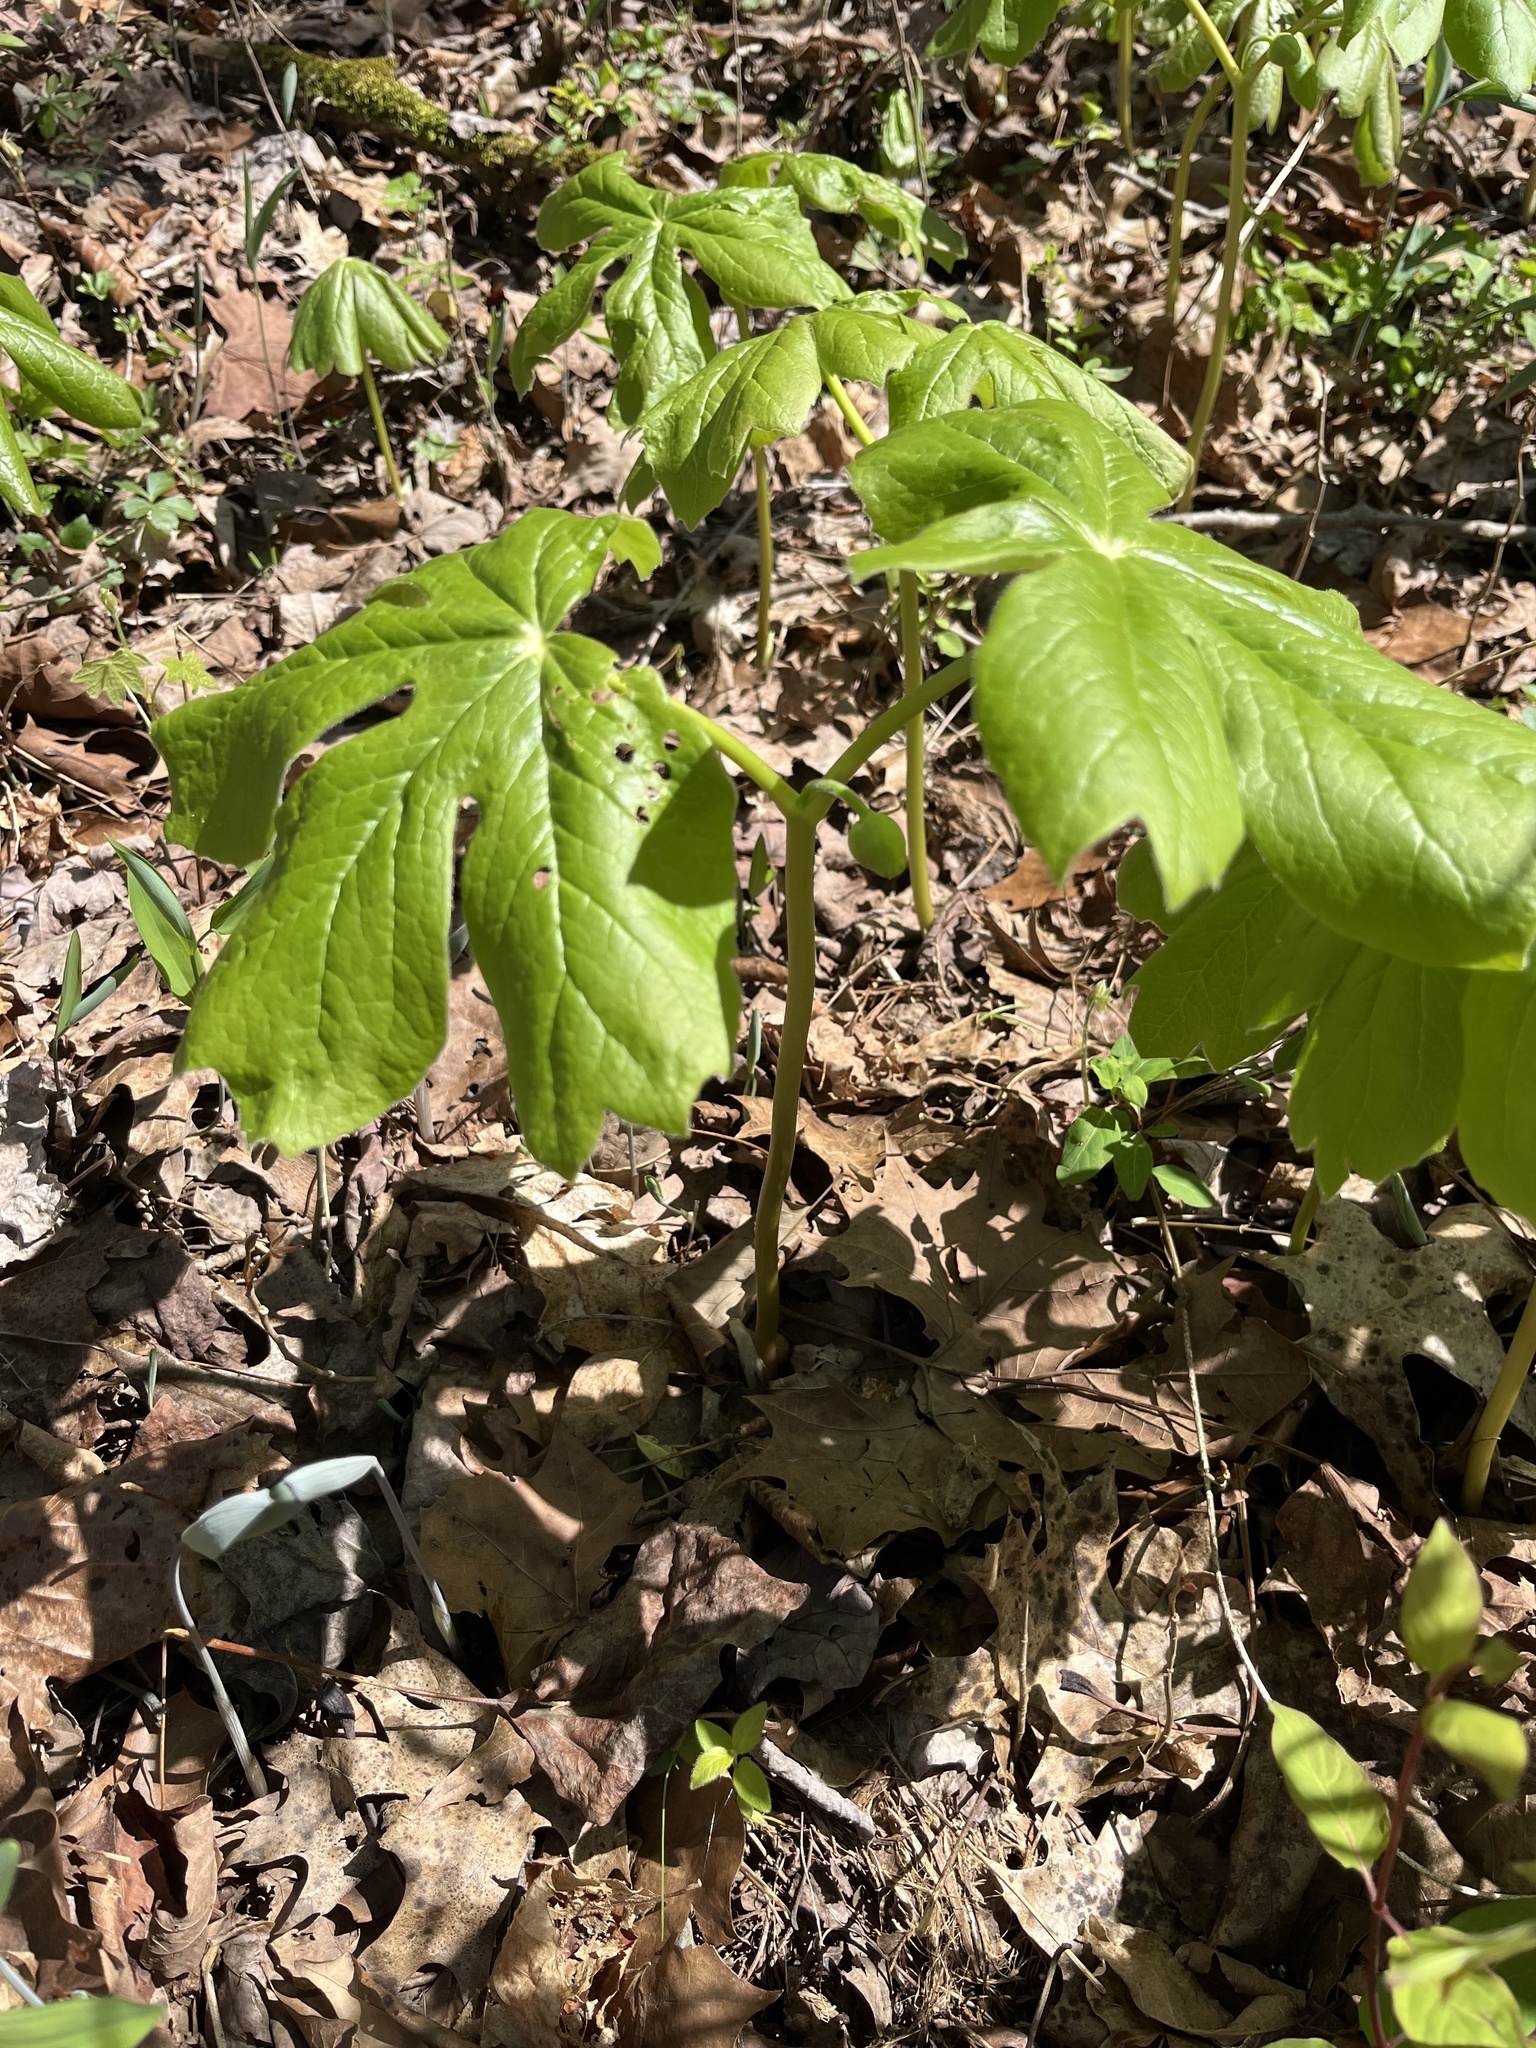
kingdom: Plantae
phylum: Tracheophyta
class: Magnoliopsida
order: Ranunculales
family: Berberidaceae
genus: Podophyllum
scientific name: Podophyllum peltatum
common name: Wild mandrake
